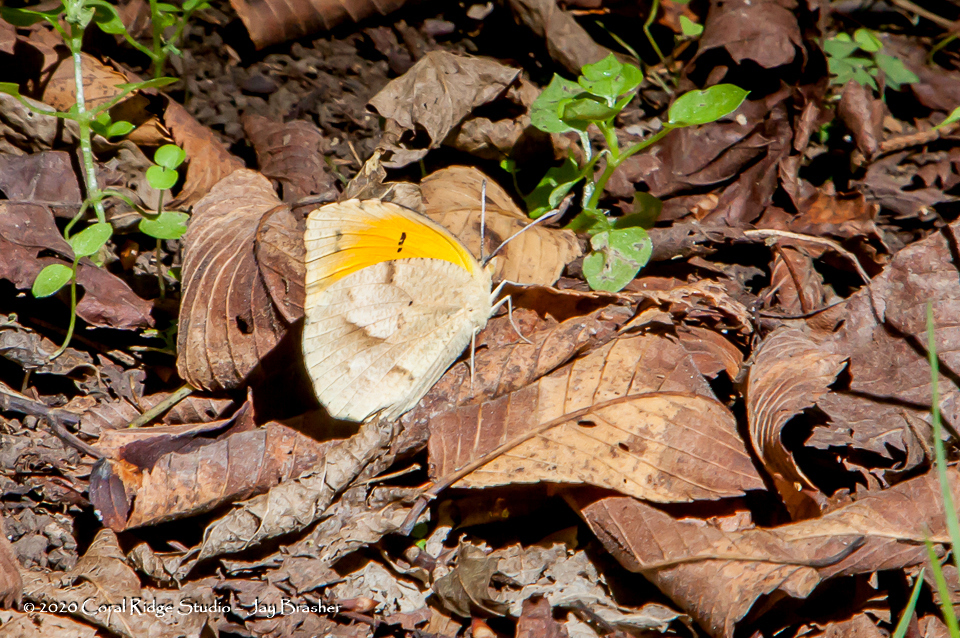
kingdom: Animalia
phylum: Arthropoda
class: Insecta
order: Lepidoptera
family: Pieridae
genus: Abaeis
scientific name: Abaeis nicippe
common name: Sleepy orange
